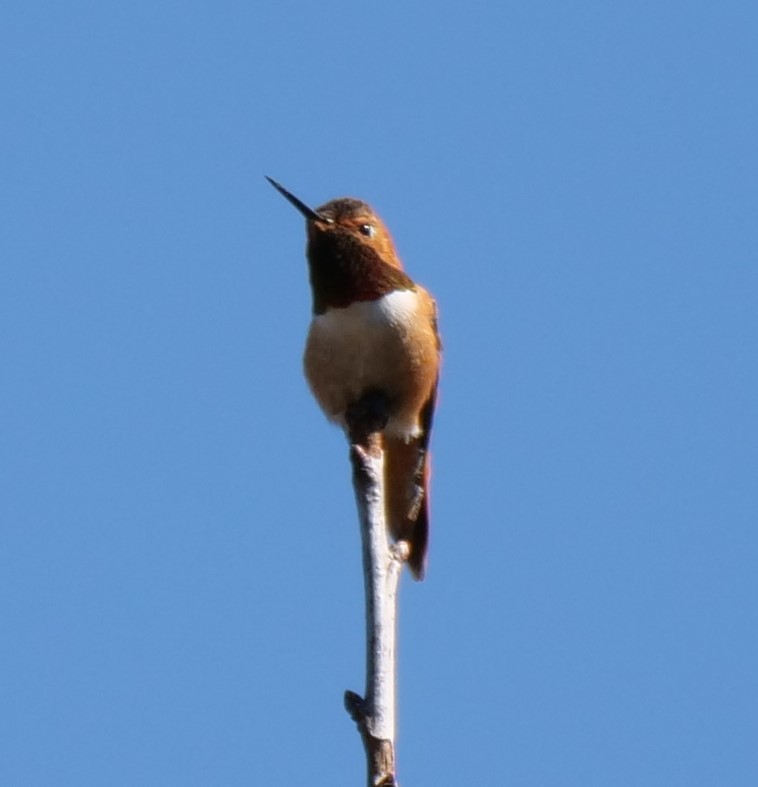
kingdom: Animalia
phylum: Chordata
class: Aves
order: Apodiformes
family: Trochilidae
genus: Selasphorus
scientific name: Selasphorus rufus
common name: Rufous hummingbird
